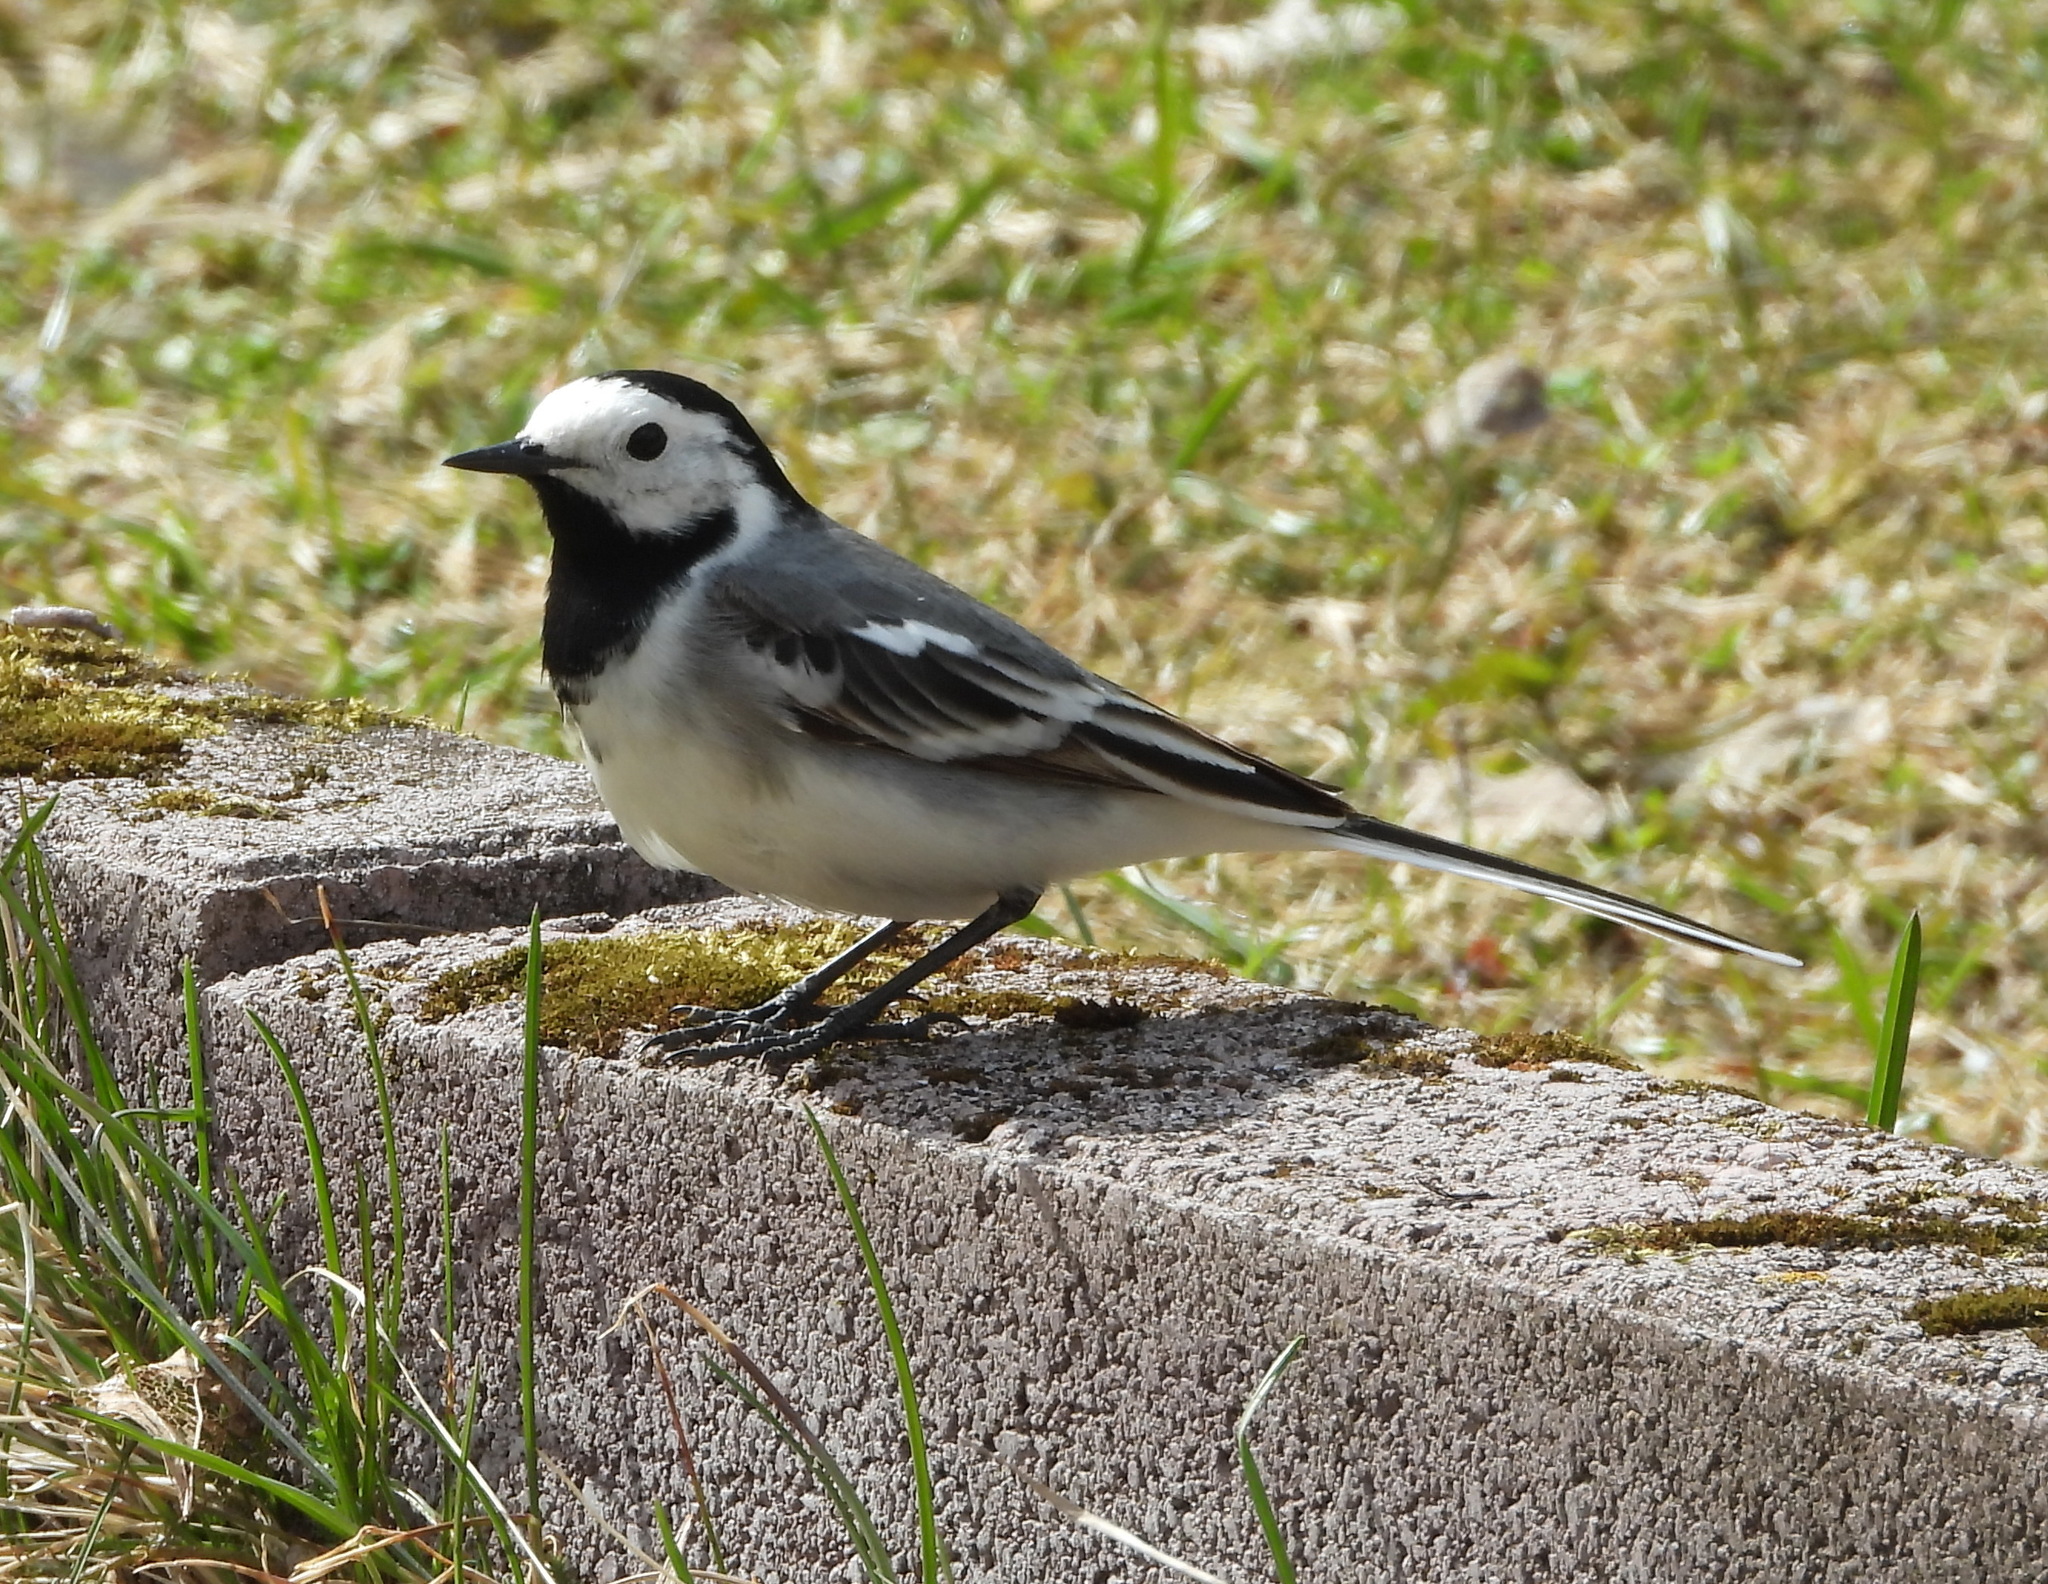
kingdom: Animalia
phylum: Chordata
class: Aves
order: Passeriformes
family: Motacillidae
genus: Motacilla
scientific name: Motacilla alba
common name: White wagtail
